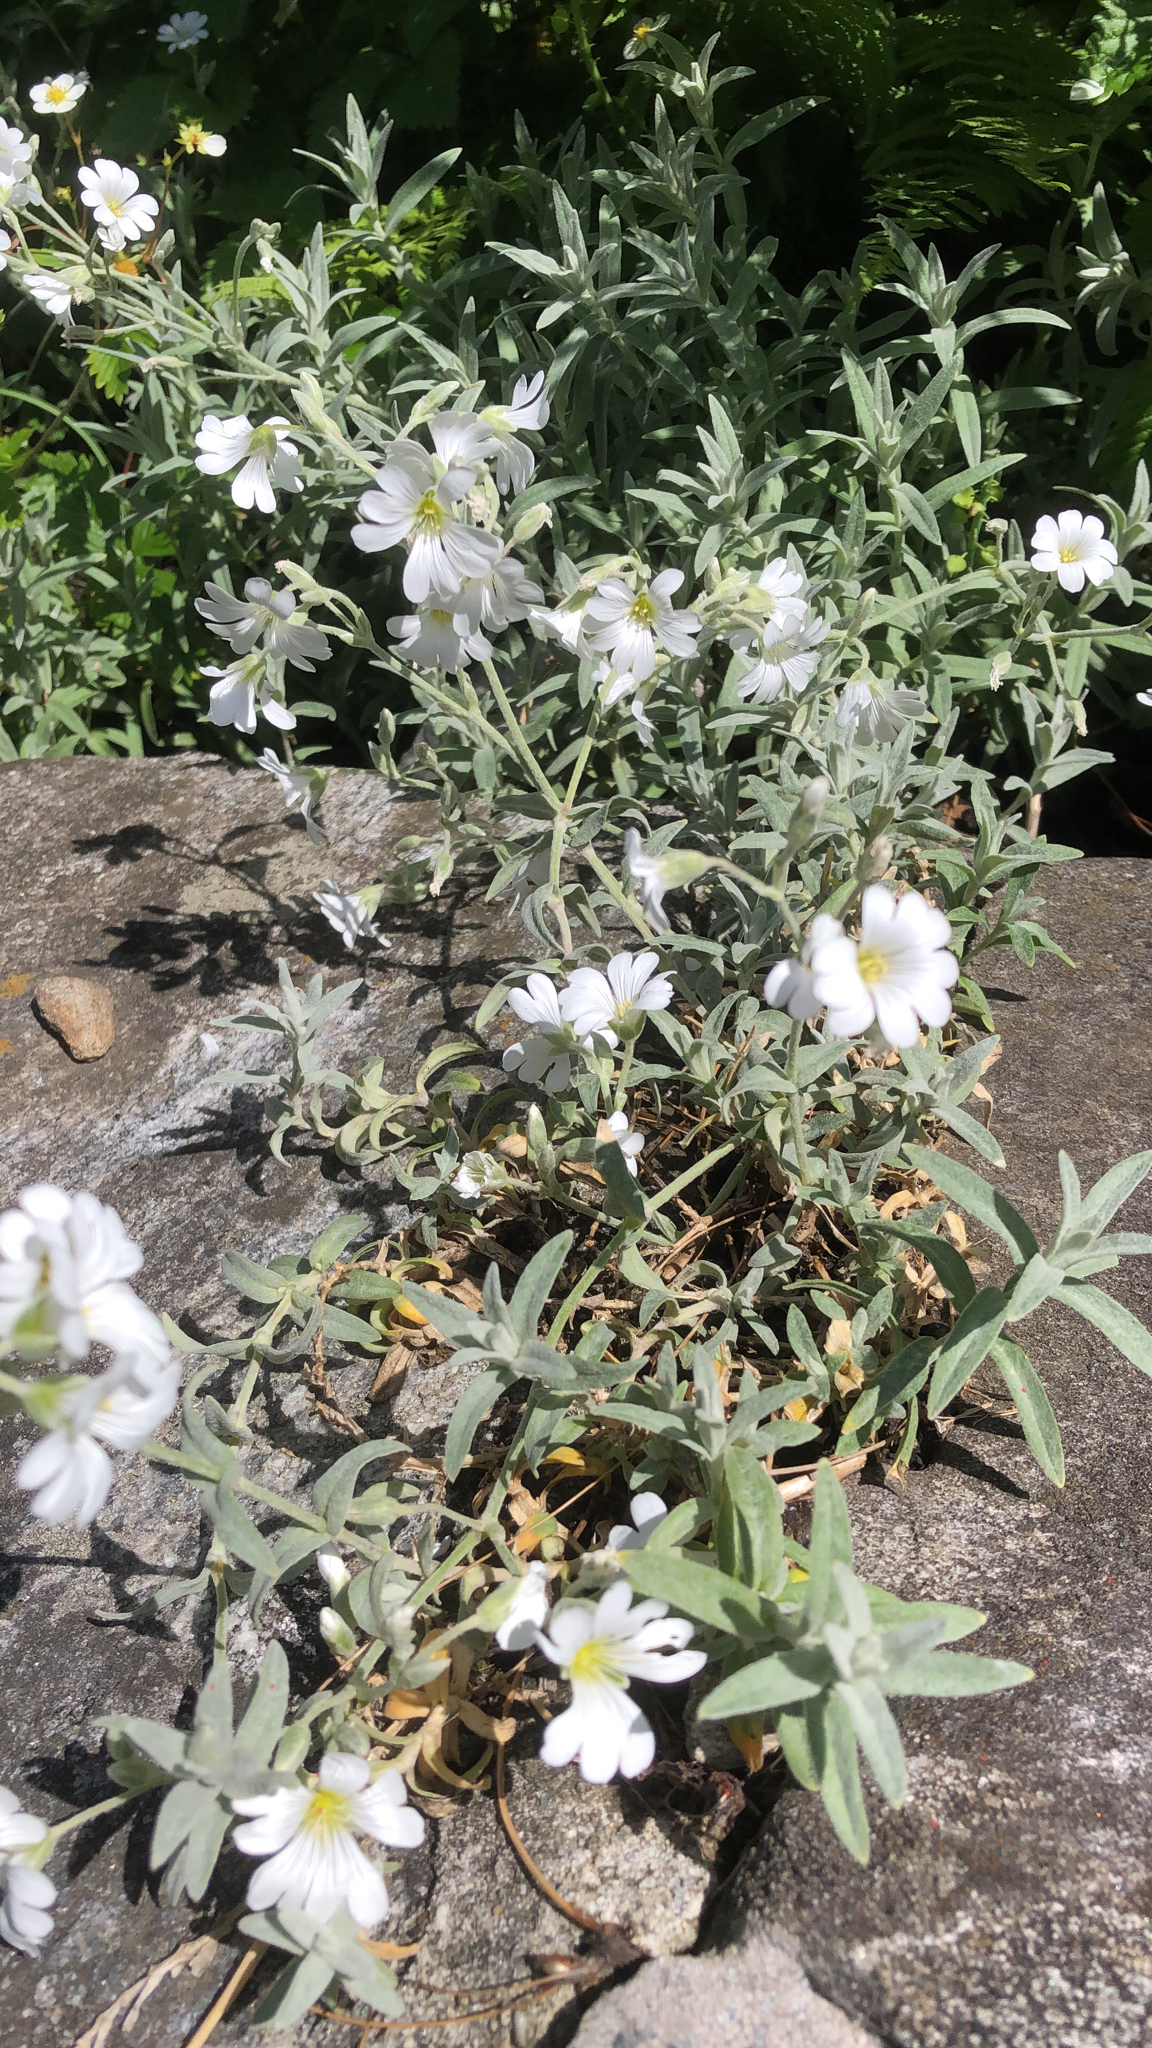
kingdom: Plantae
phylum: Tracheophyta
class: Magnoliopsida
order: Caryophyllales
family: Caryophyllaceae
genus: Cerastium
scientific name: Cerastium tomentosum
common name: Snow-in-summer
